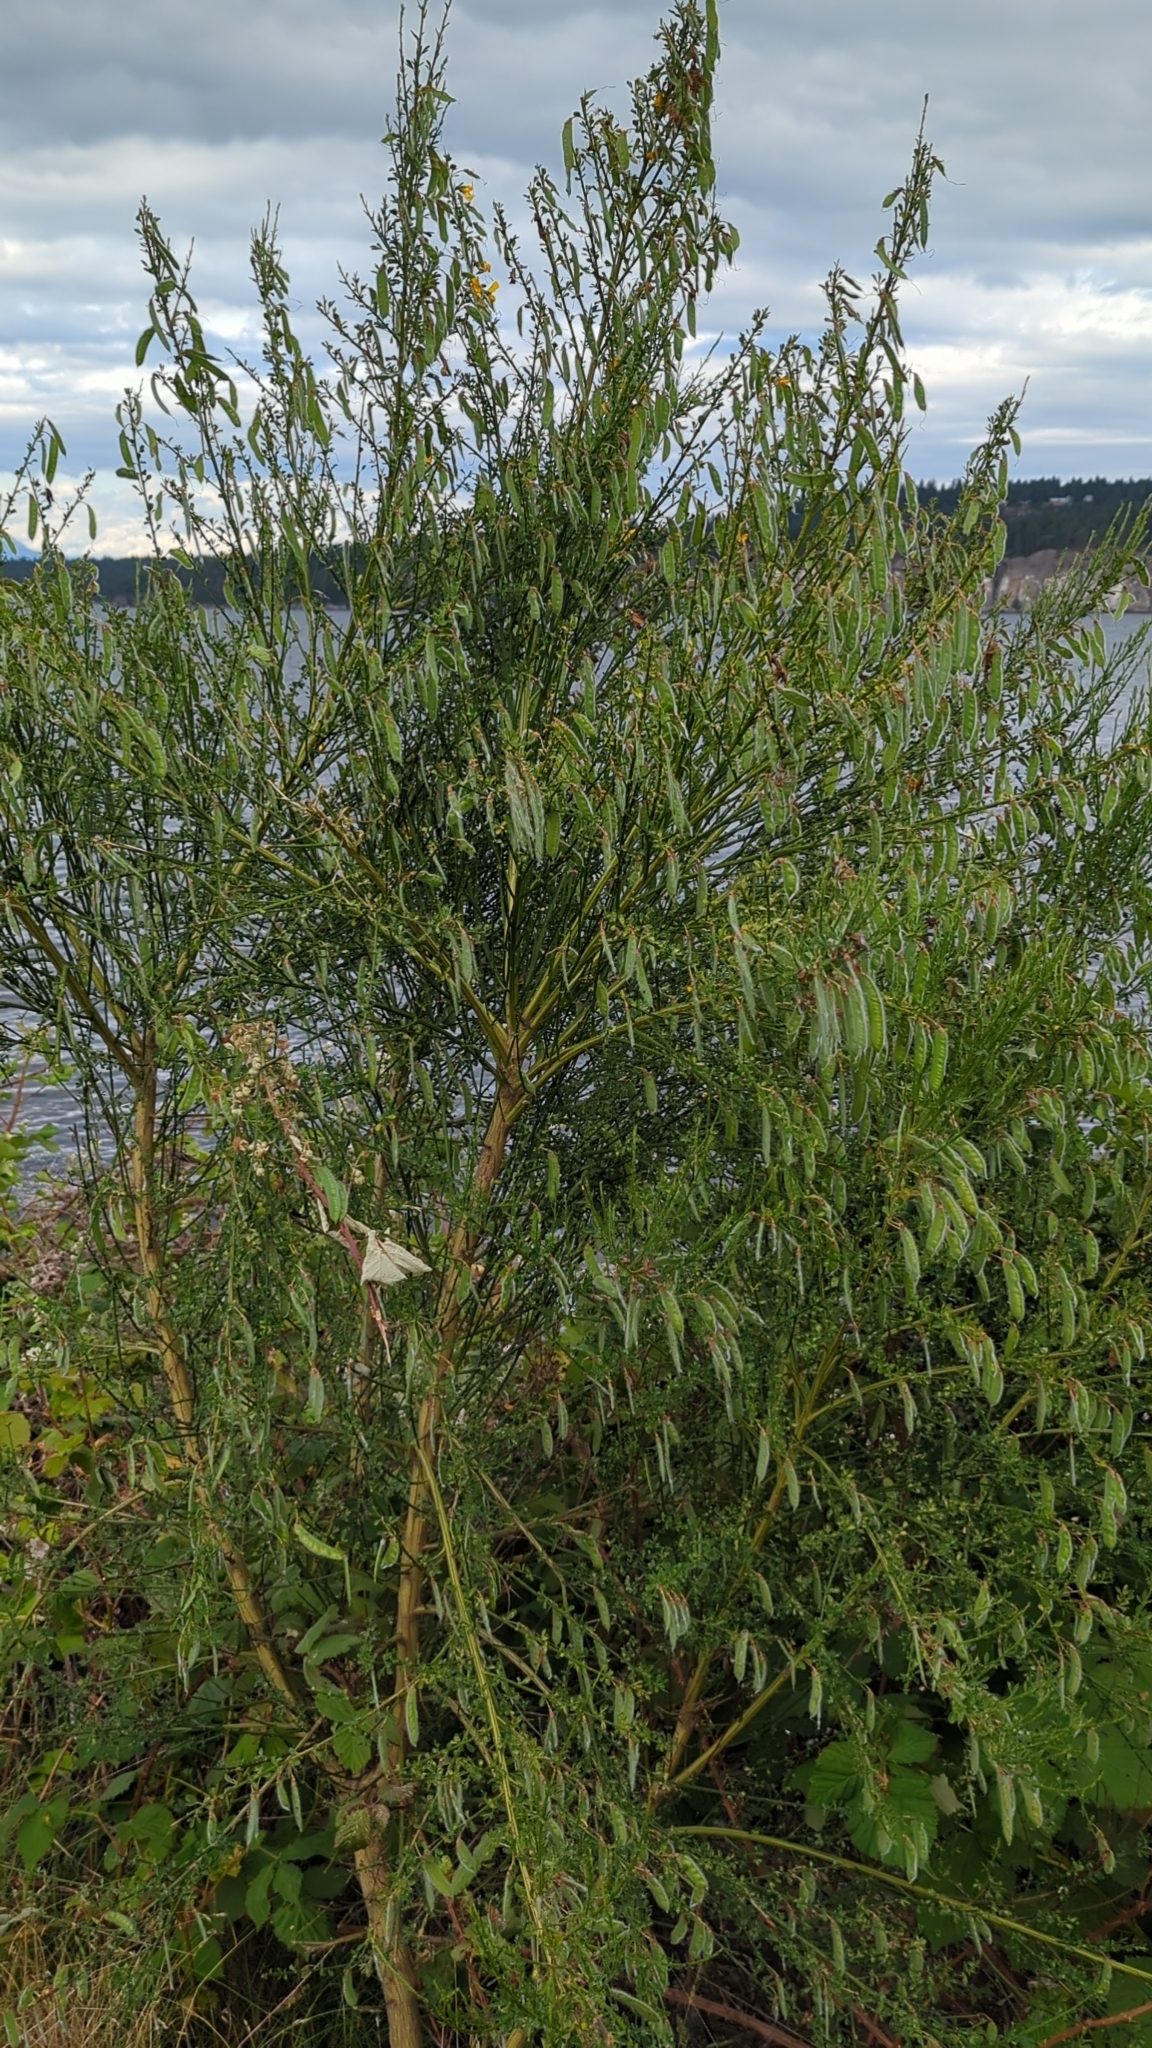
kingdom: Plantae
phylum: Tracheophyta
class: Magnoliopsida
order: Fabales
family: Fabaceae
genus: Cytisus
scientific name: Cytisus scoparius
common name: Scotch broom
